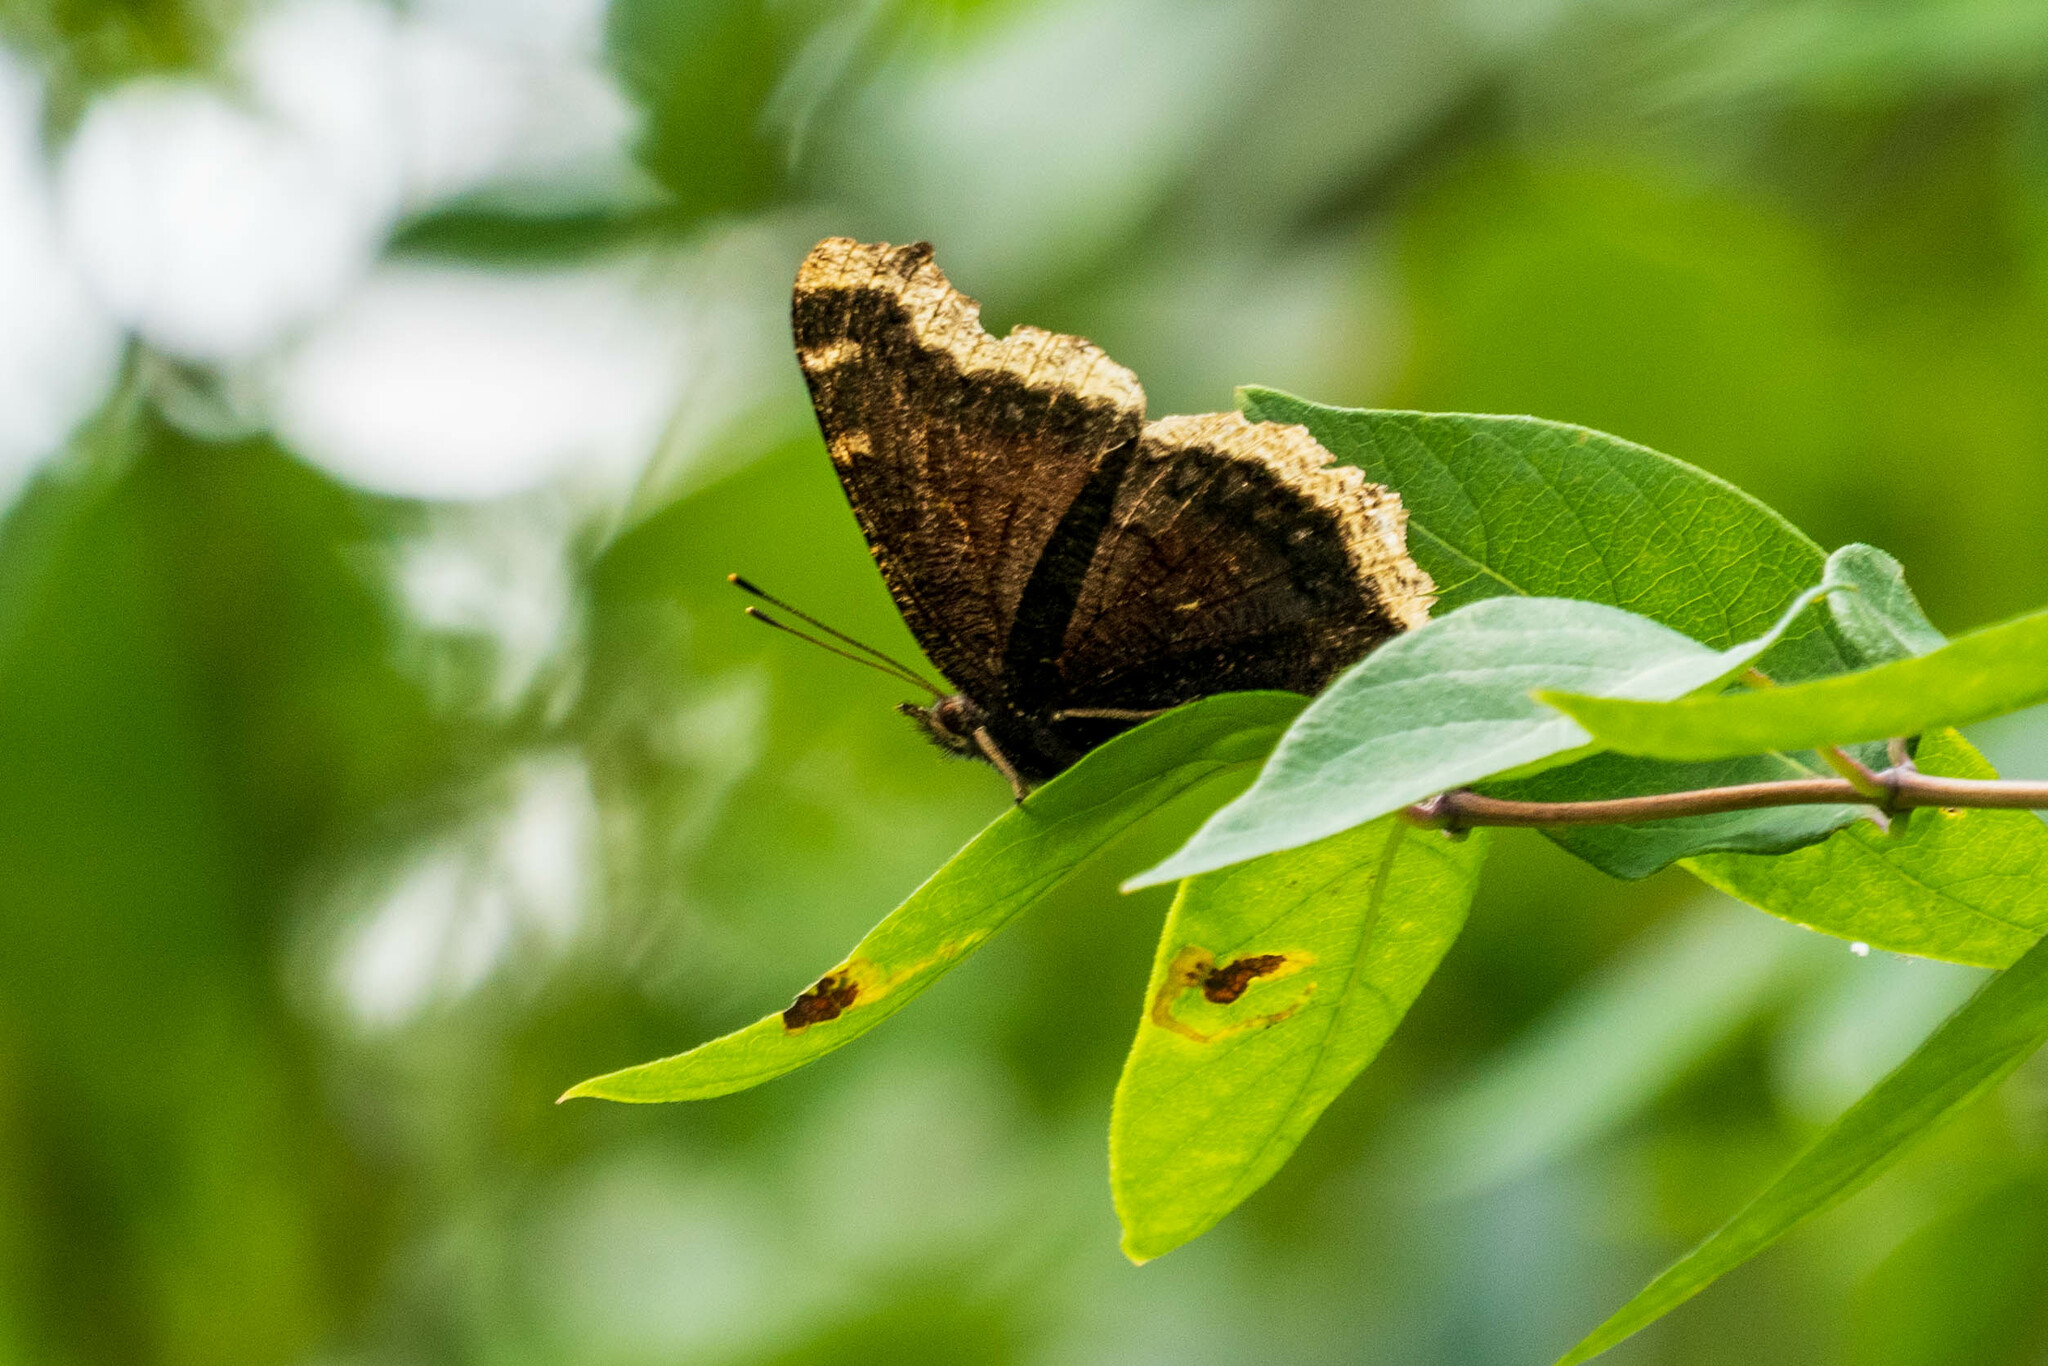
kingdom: Animalia
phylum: Arthropoda
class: Insecta
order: Lepidoptera
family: Nymphalidae
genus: Nymphalis
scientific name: Nymphalis antiopa
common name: Camberwell beauty
